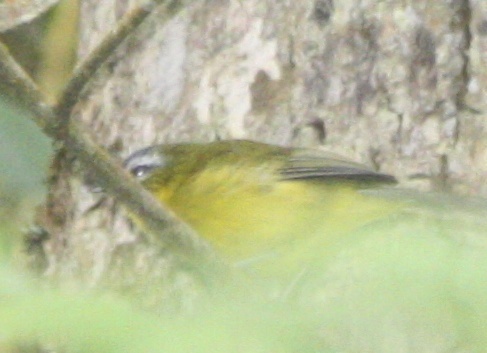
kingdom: Animalia
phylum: Chordata
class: Aves
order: Passeriformes
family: Thraupidae
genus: Thlypopsis
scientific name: Thlypopsis superciliaris
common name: Superciliaried hemispingus
